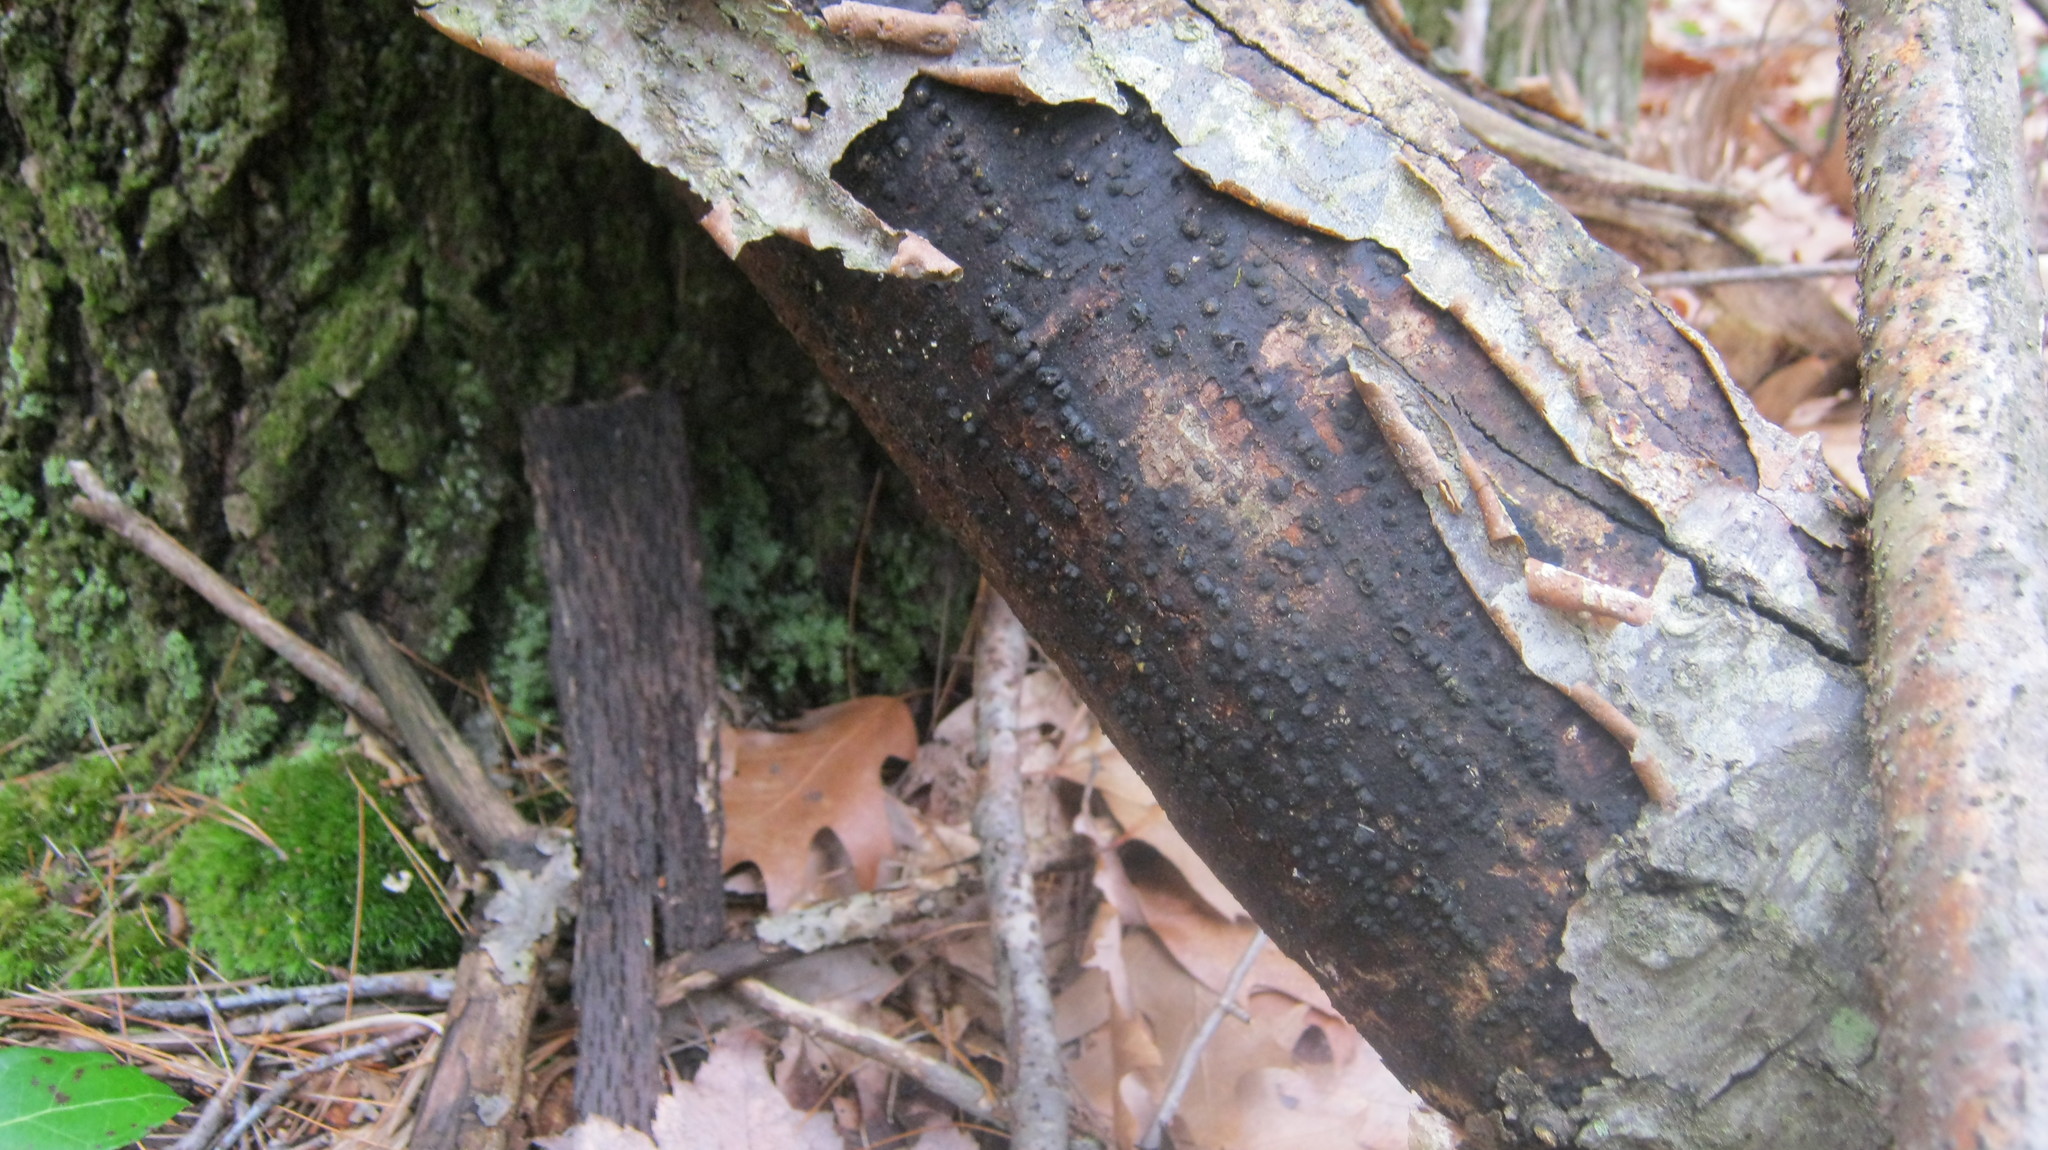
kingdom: Fungi
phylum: Ascomycota
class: Sordariomycetes
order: Xylariales
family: Diatrypaceae
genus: Diatrype
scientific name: Diatrype stigma
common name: Common tarcrust
